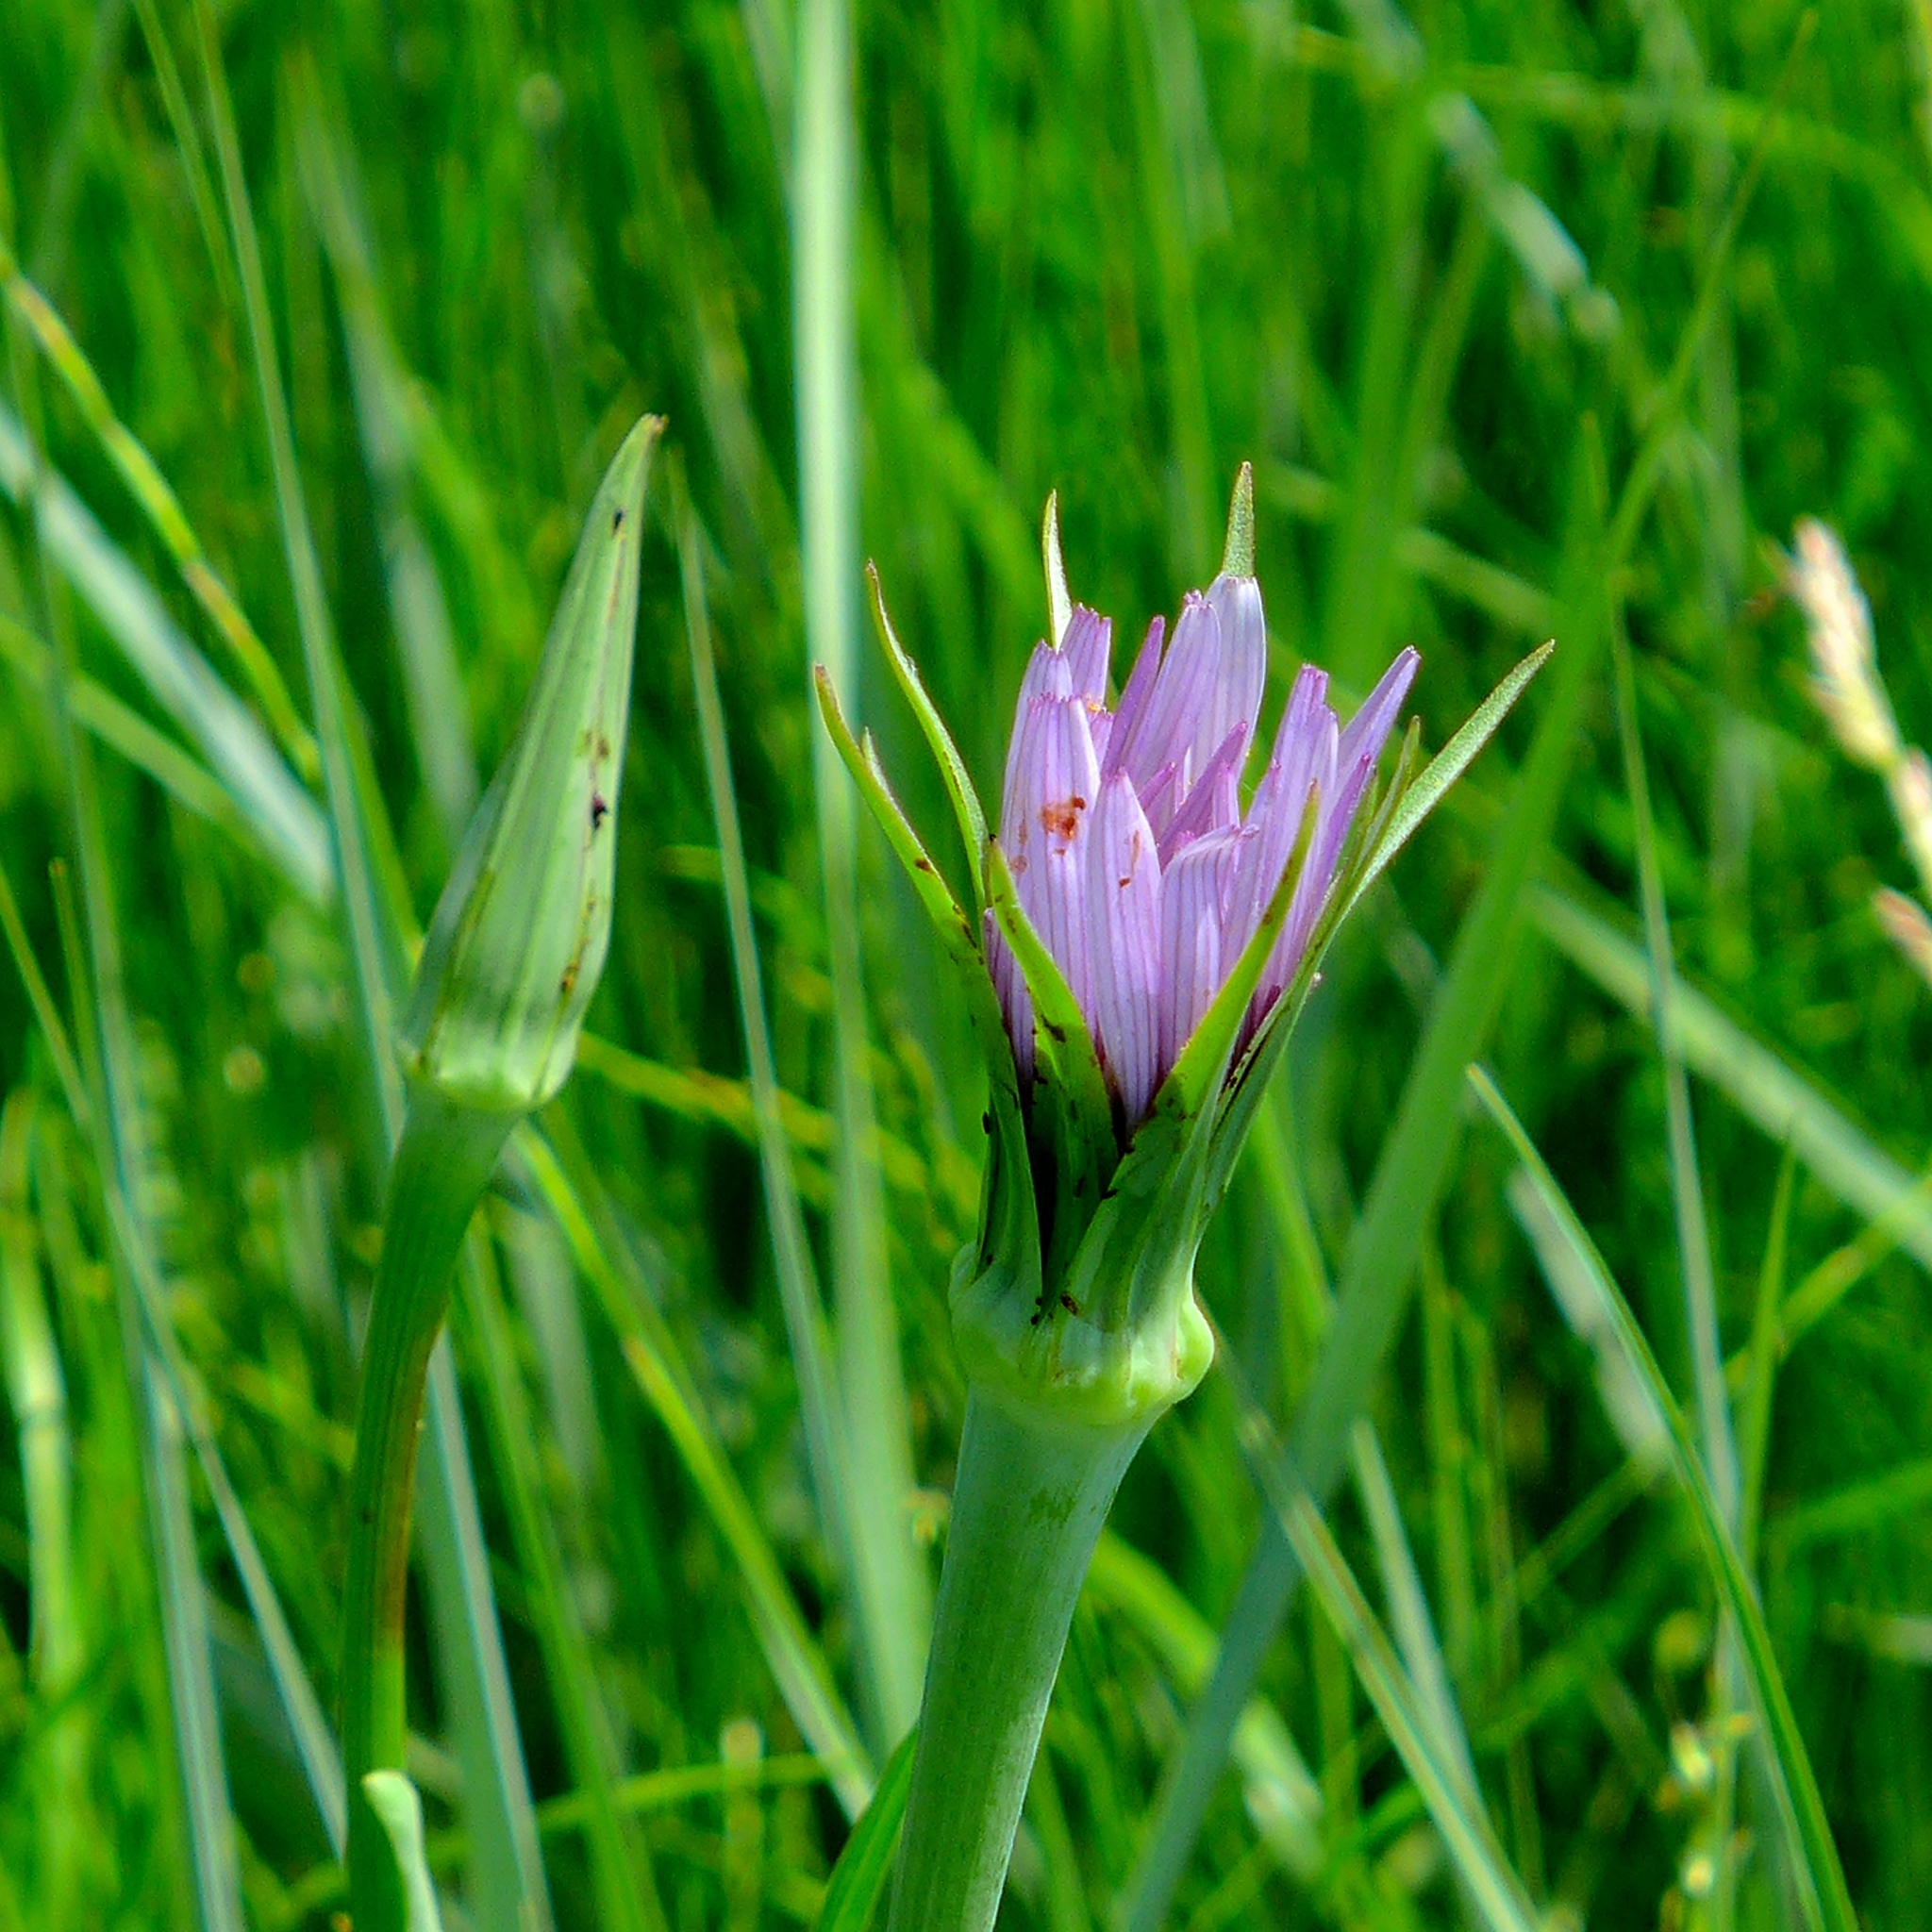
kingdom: Plantae
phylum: Tracheophyta
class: Magnoliopsida
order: Asterales
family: Asteraceae
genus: Tragopogon
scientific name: Tragopogon porrifolius
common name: Salsify
